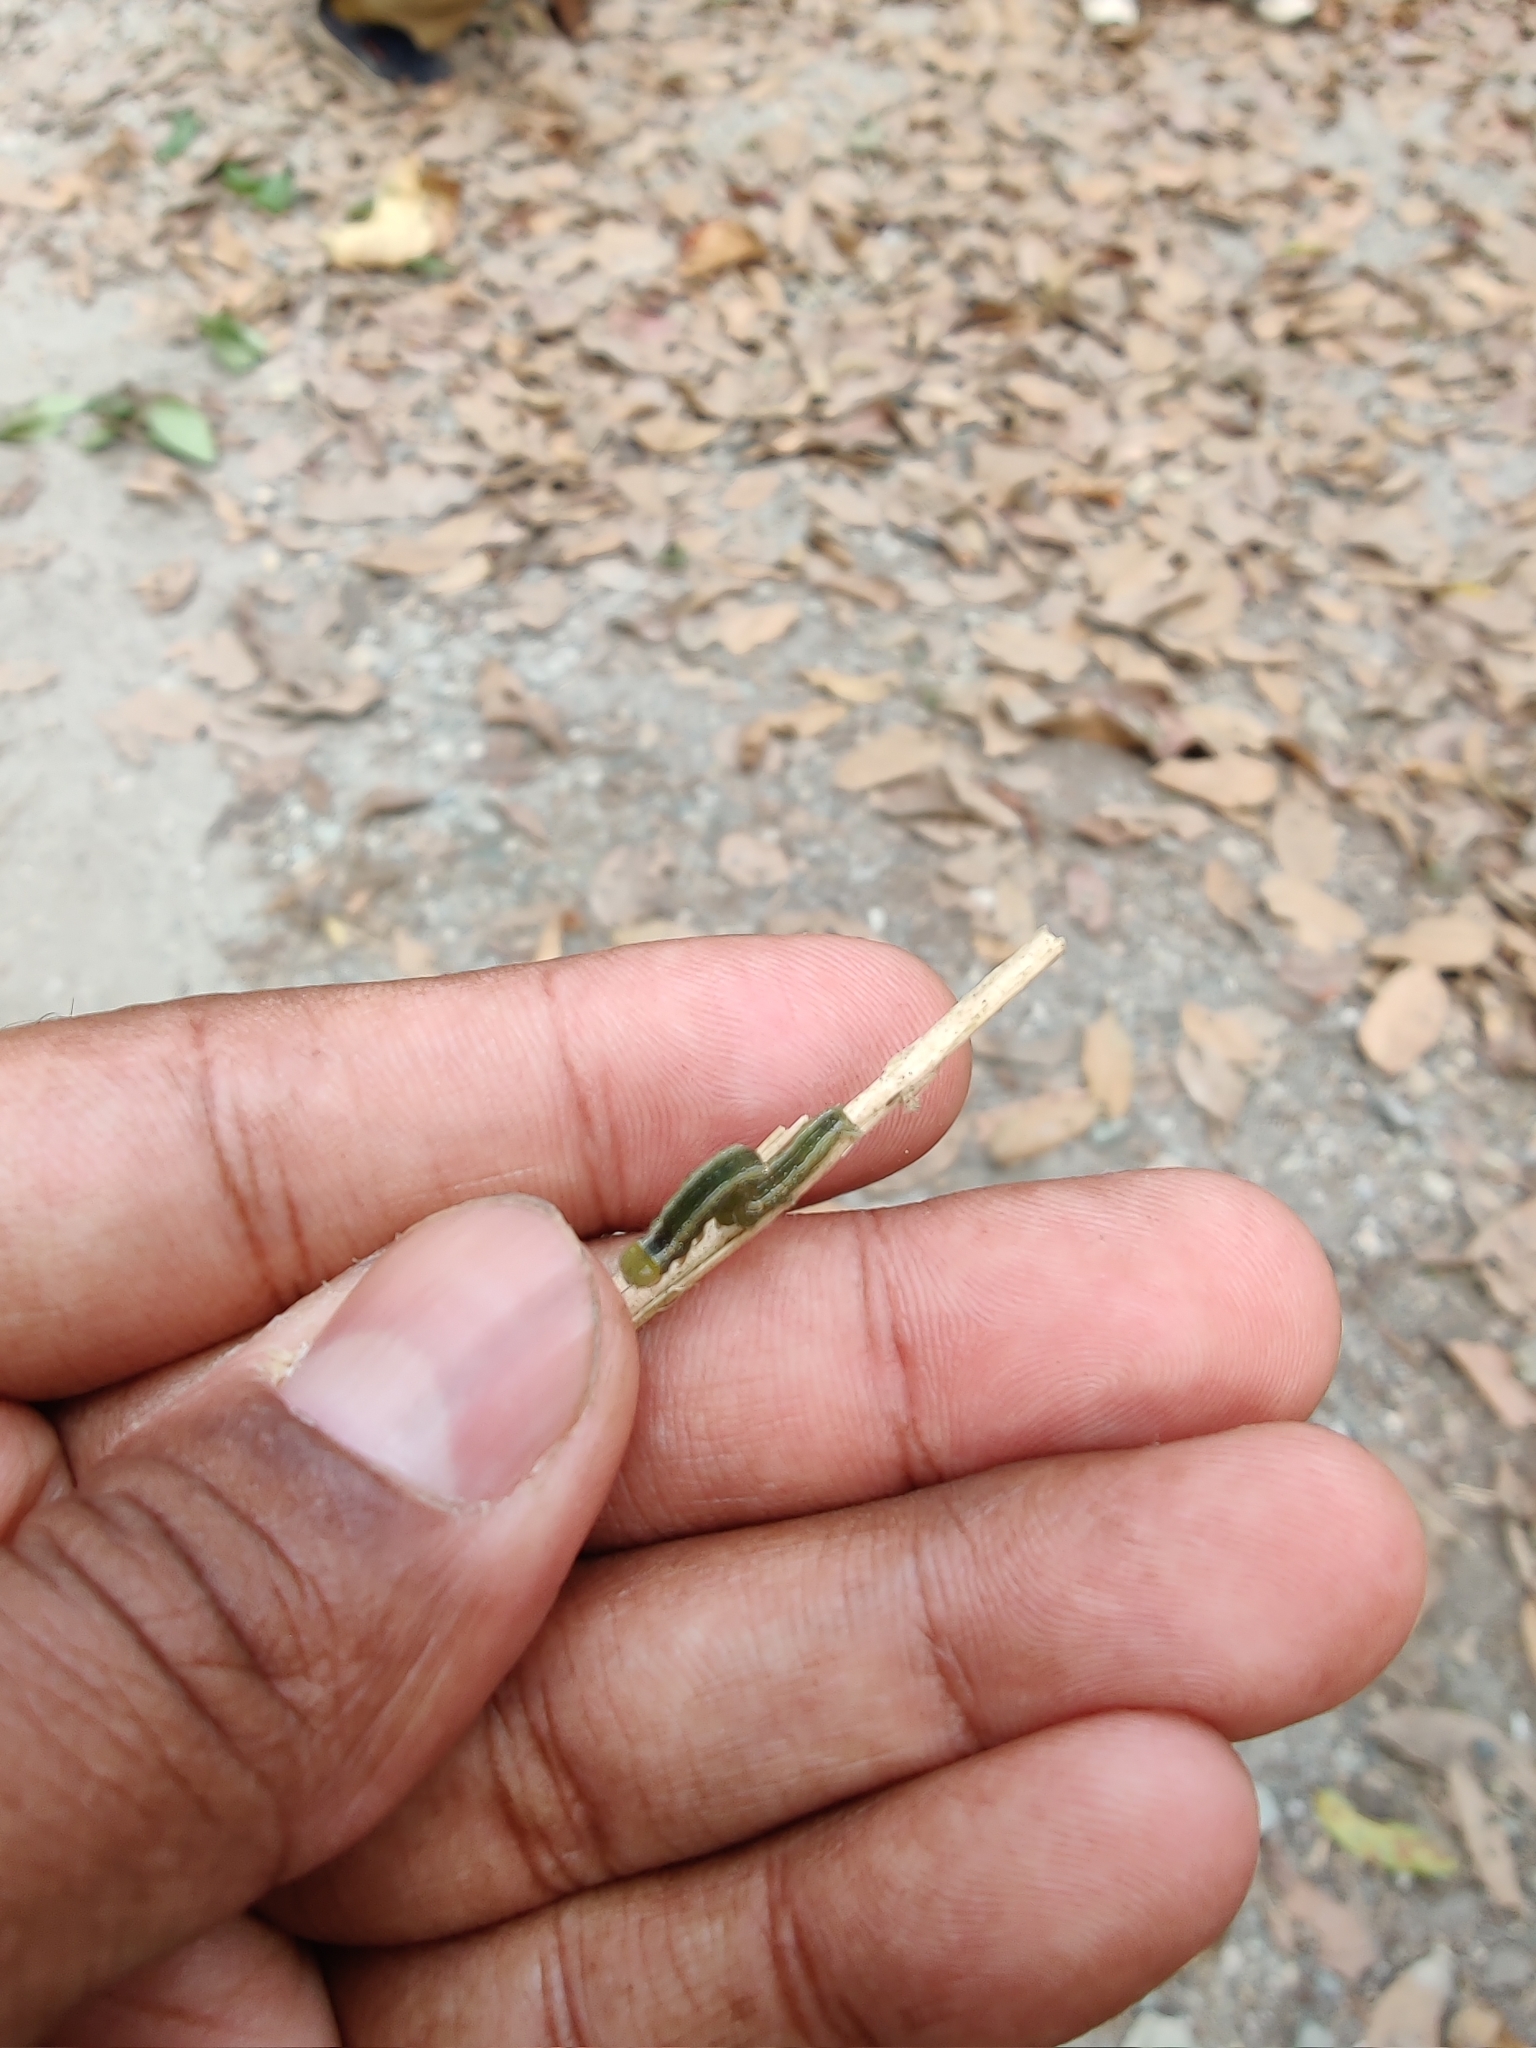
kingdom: Animalia
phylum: Arthropoda
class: Insecta
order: Lepidoptera
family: Erebidae
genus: Anomis
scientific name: Anomis flava
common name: Moth
